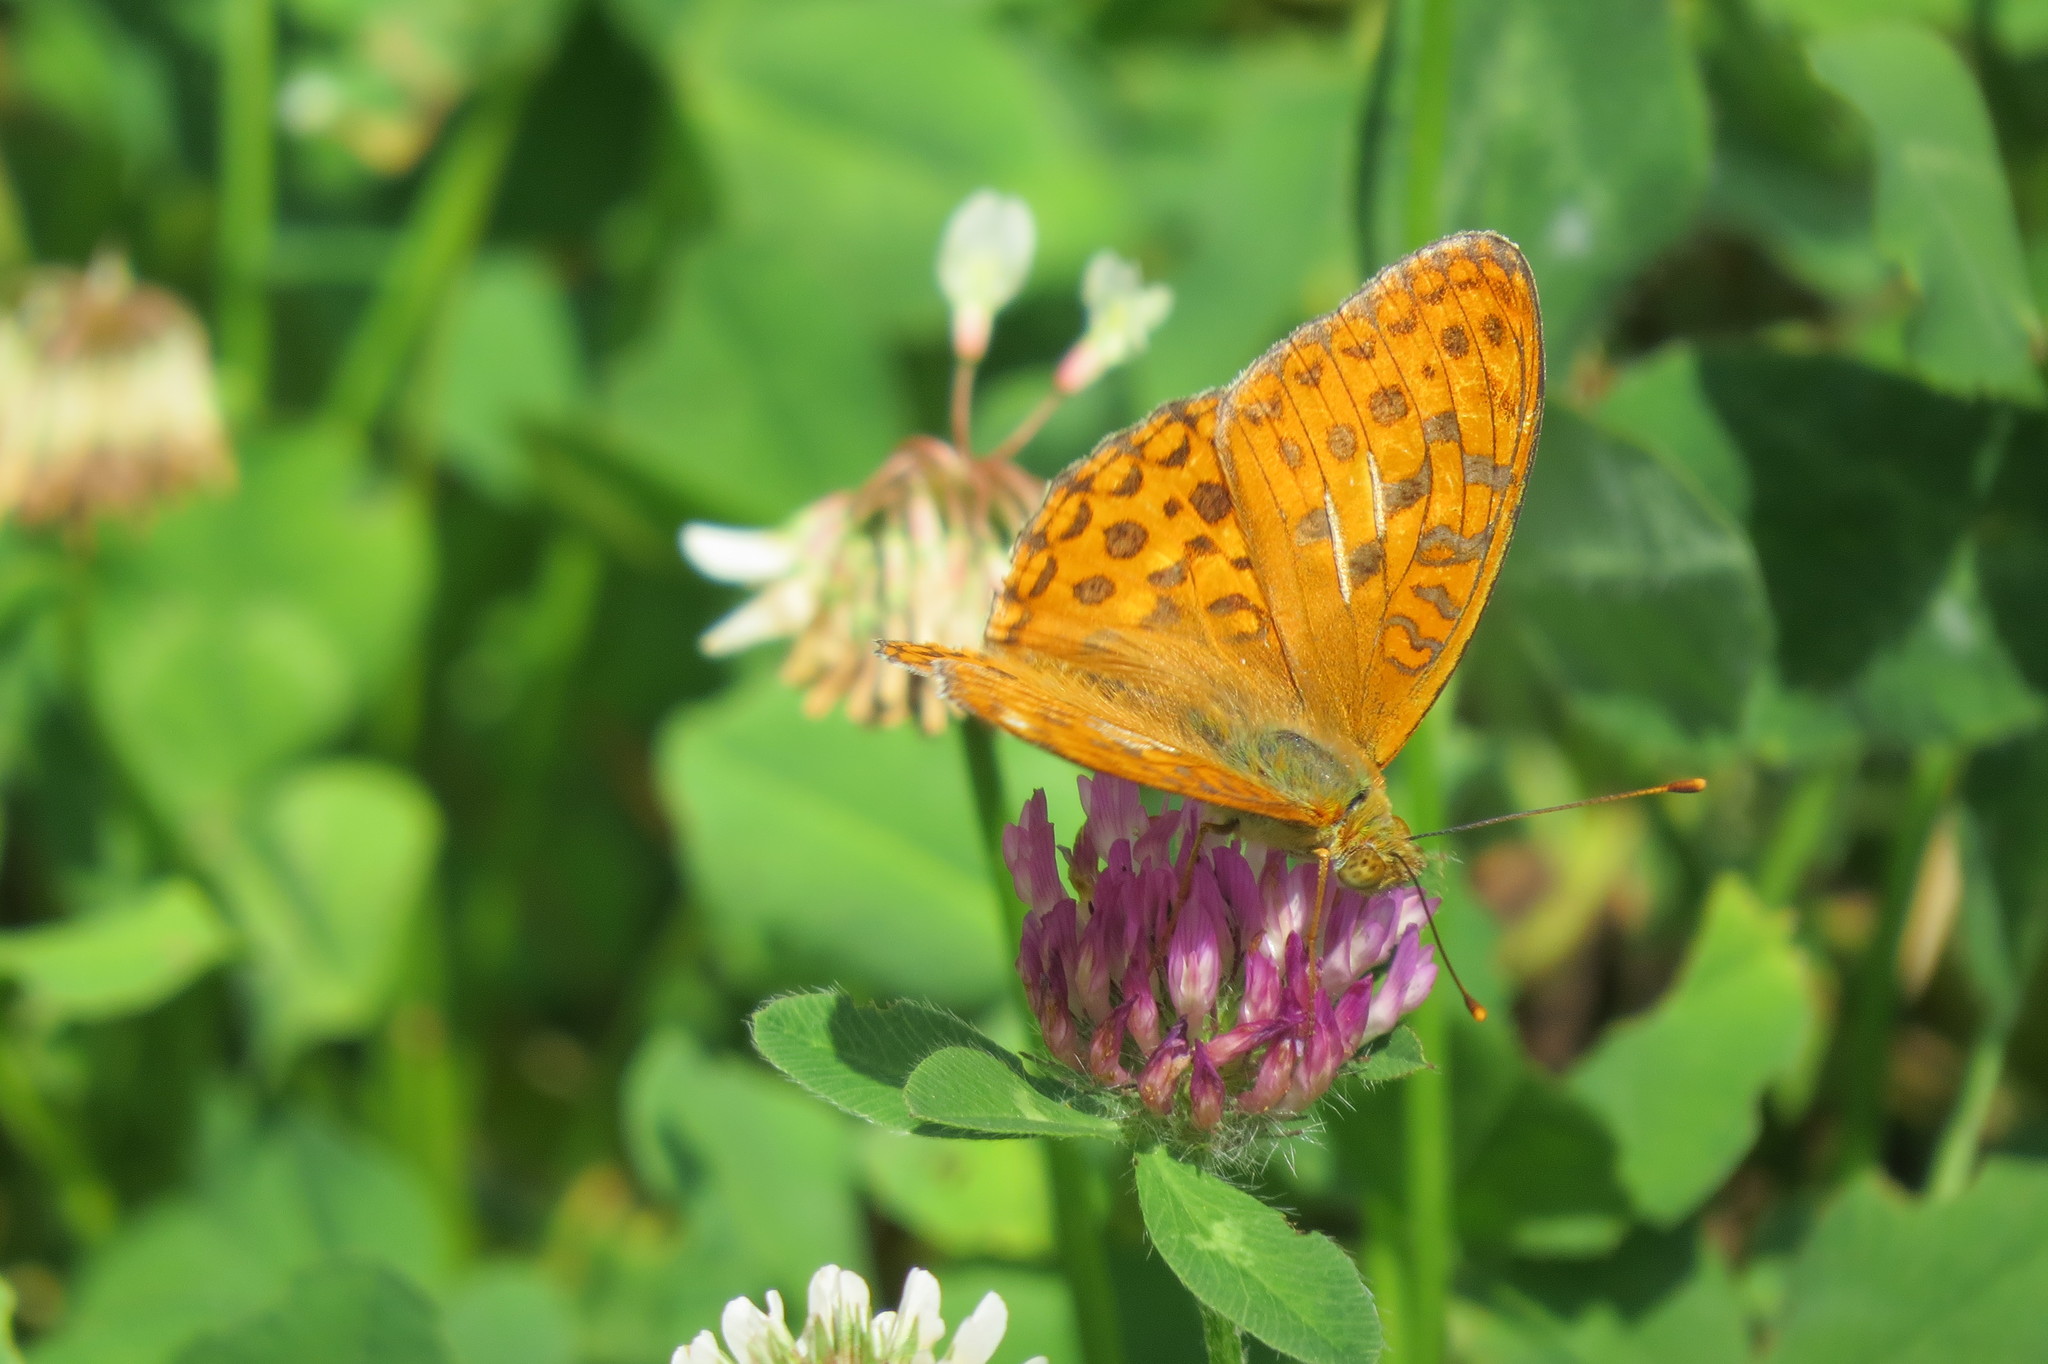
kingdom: Animalia
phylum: Arthropoda
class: Insecta
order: Lepidoptera
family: Nymphalidae
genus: Fabriciana
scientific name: Fabriciana adippe
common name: High brown fritillary
